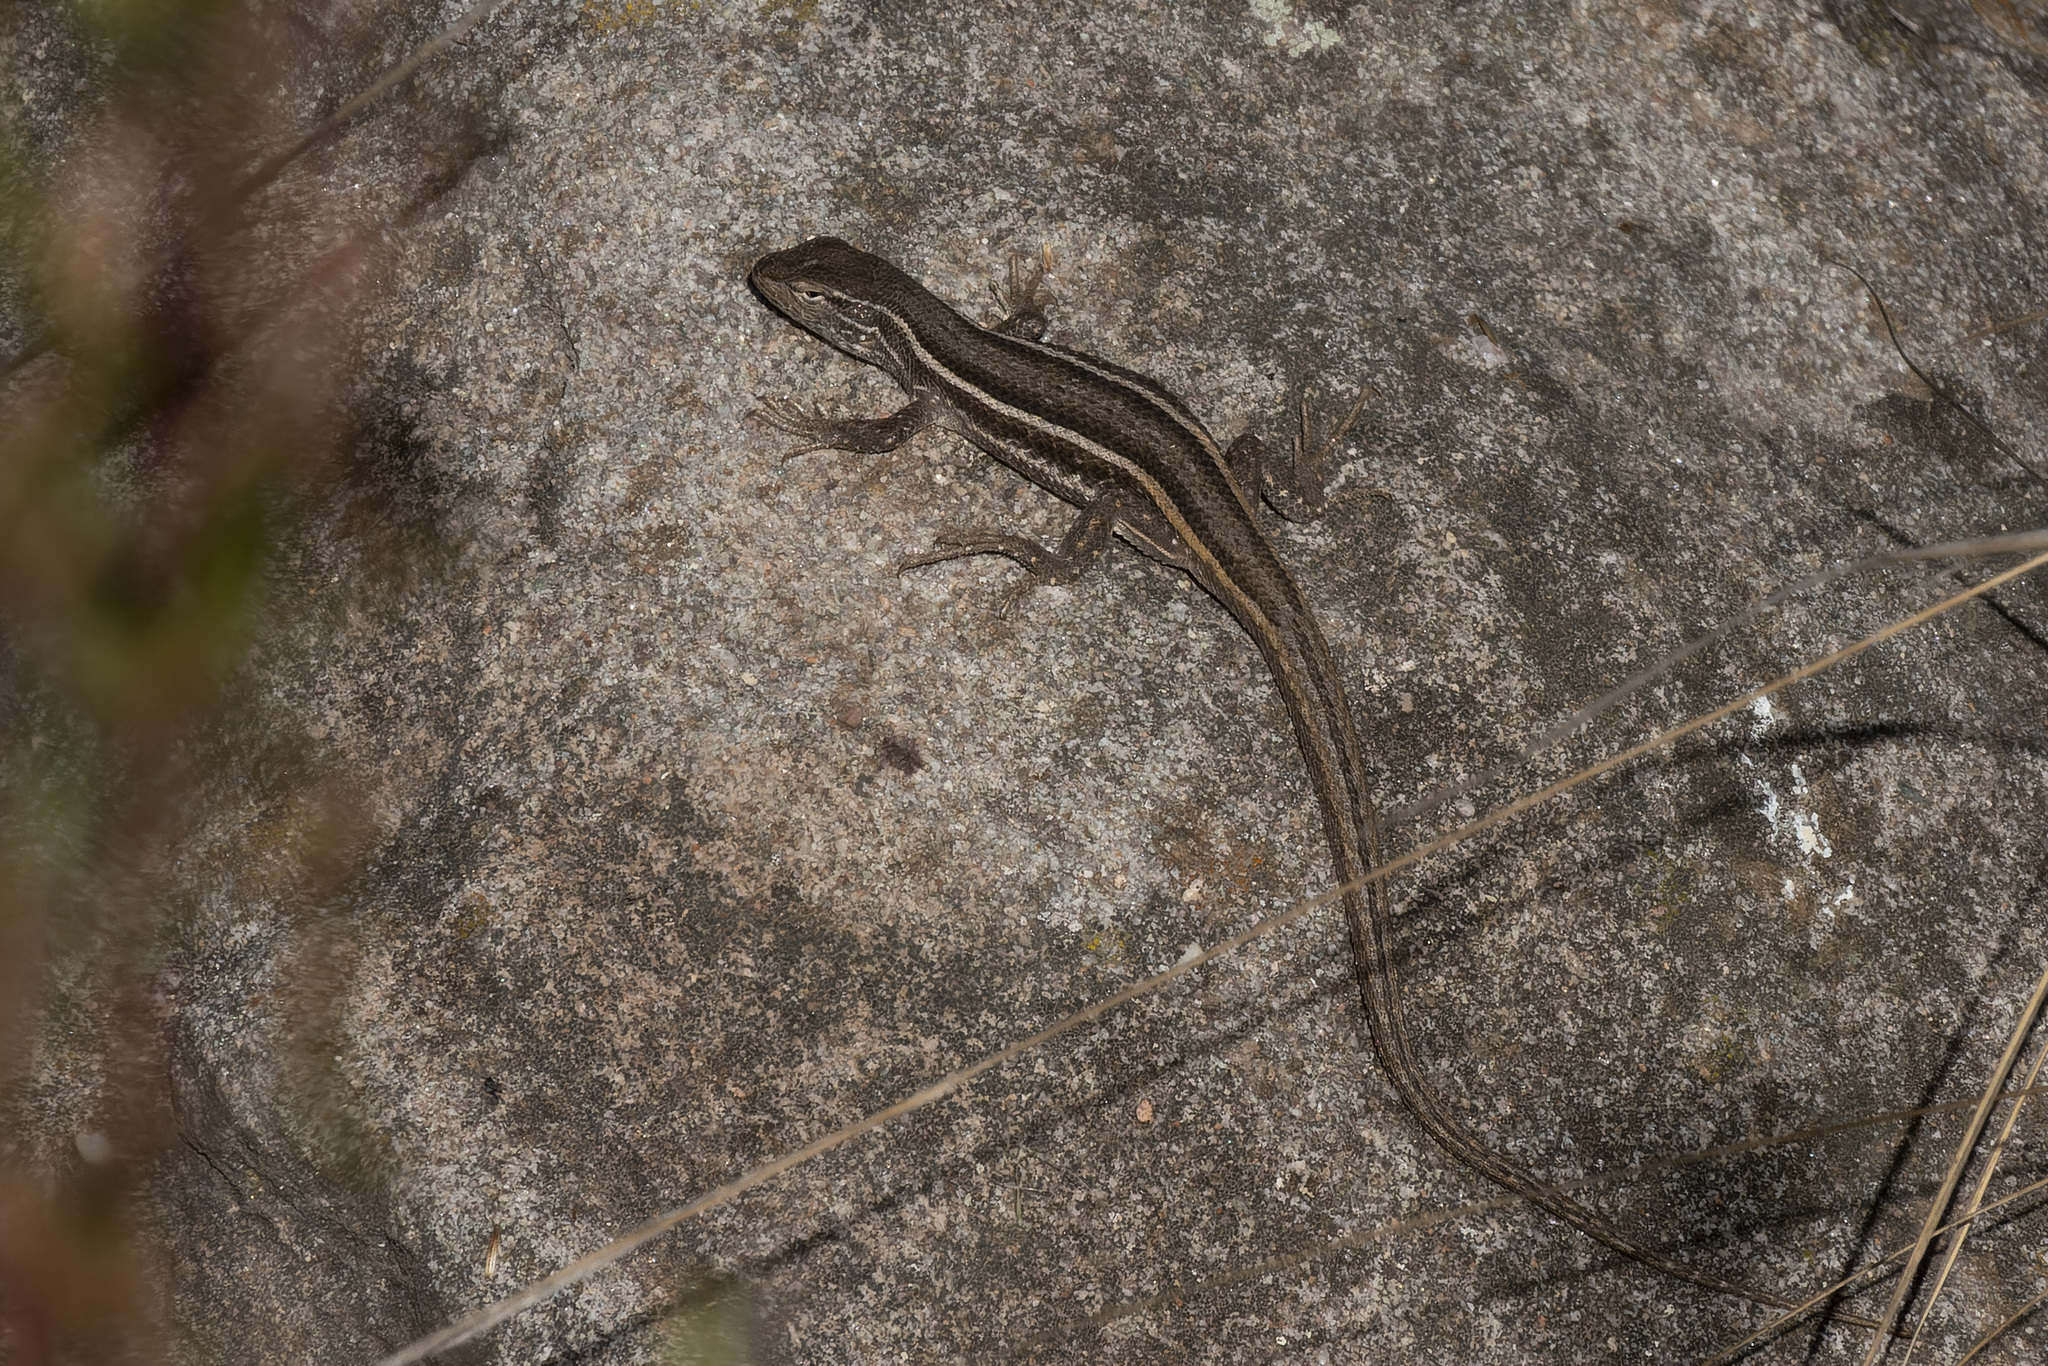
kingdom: Animalia
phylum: Chordata
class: Squamata
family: Liolaemidae
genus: Liolaemus
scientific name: Liolaemus gracilis
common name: Graceful tree iguana
